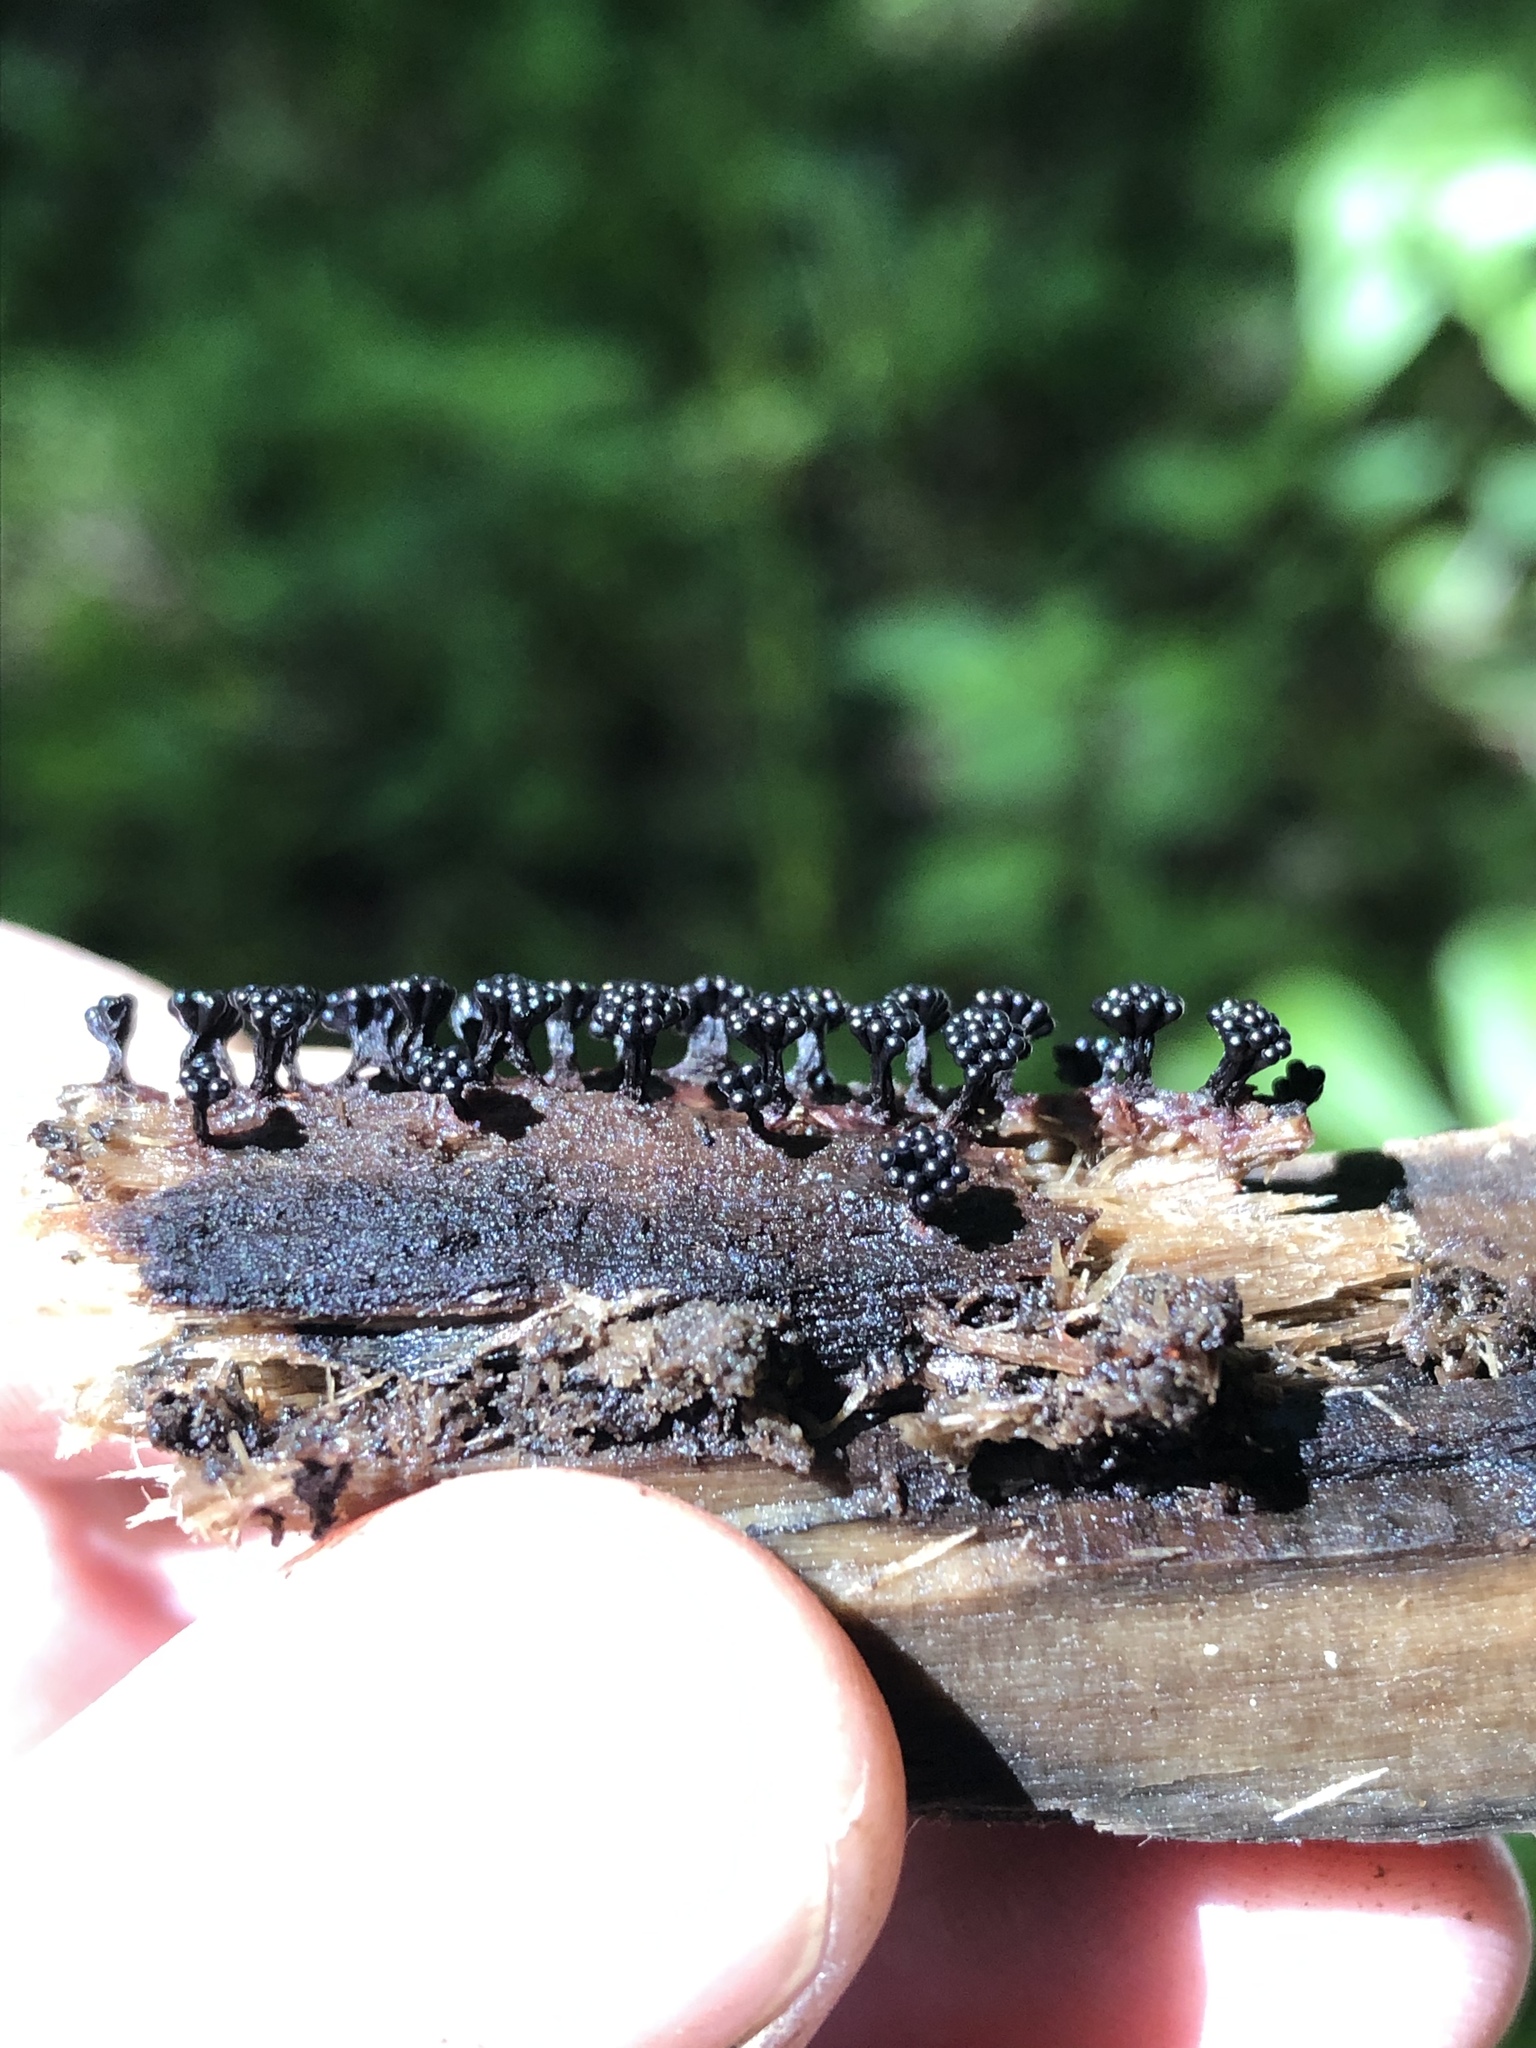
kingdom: Protozoa
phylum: Mycetozoa
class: Myxomycetes
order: Trichiales
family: Trichiaceae
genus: Metatrichia
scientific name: Metatrichia vesparia
